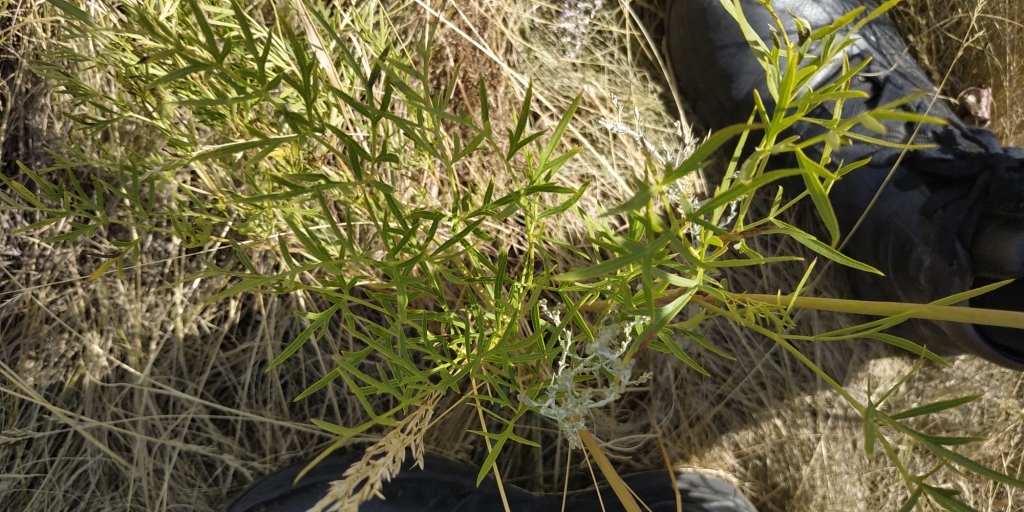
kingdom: Plantae
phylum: Tracheophyta
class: Magnoliopsida
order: Apiales
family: Apiaceae
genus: Silaum
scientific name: Silaum silaus
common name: Pepper-saxifrage
